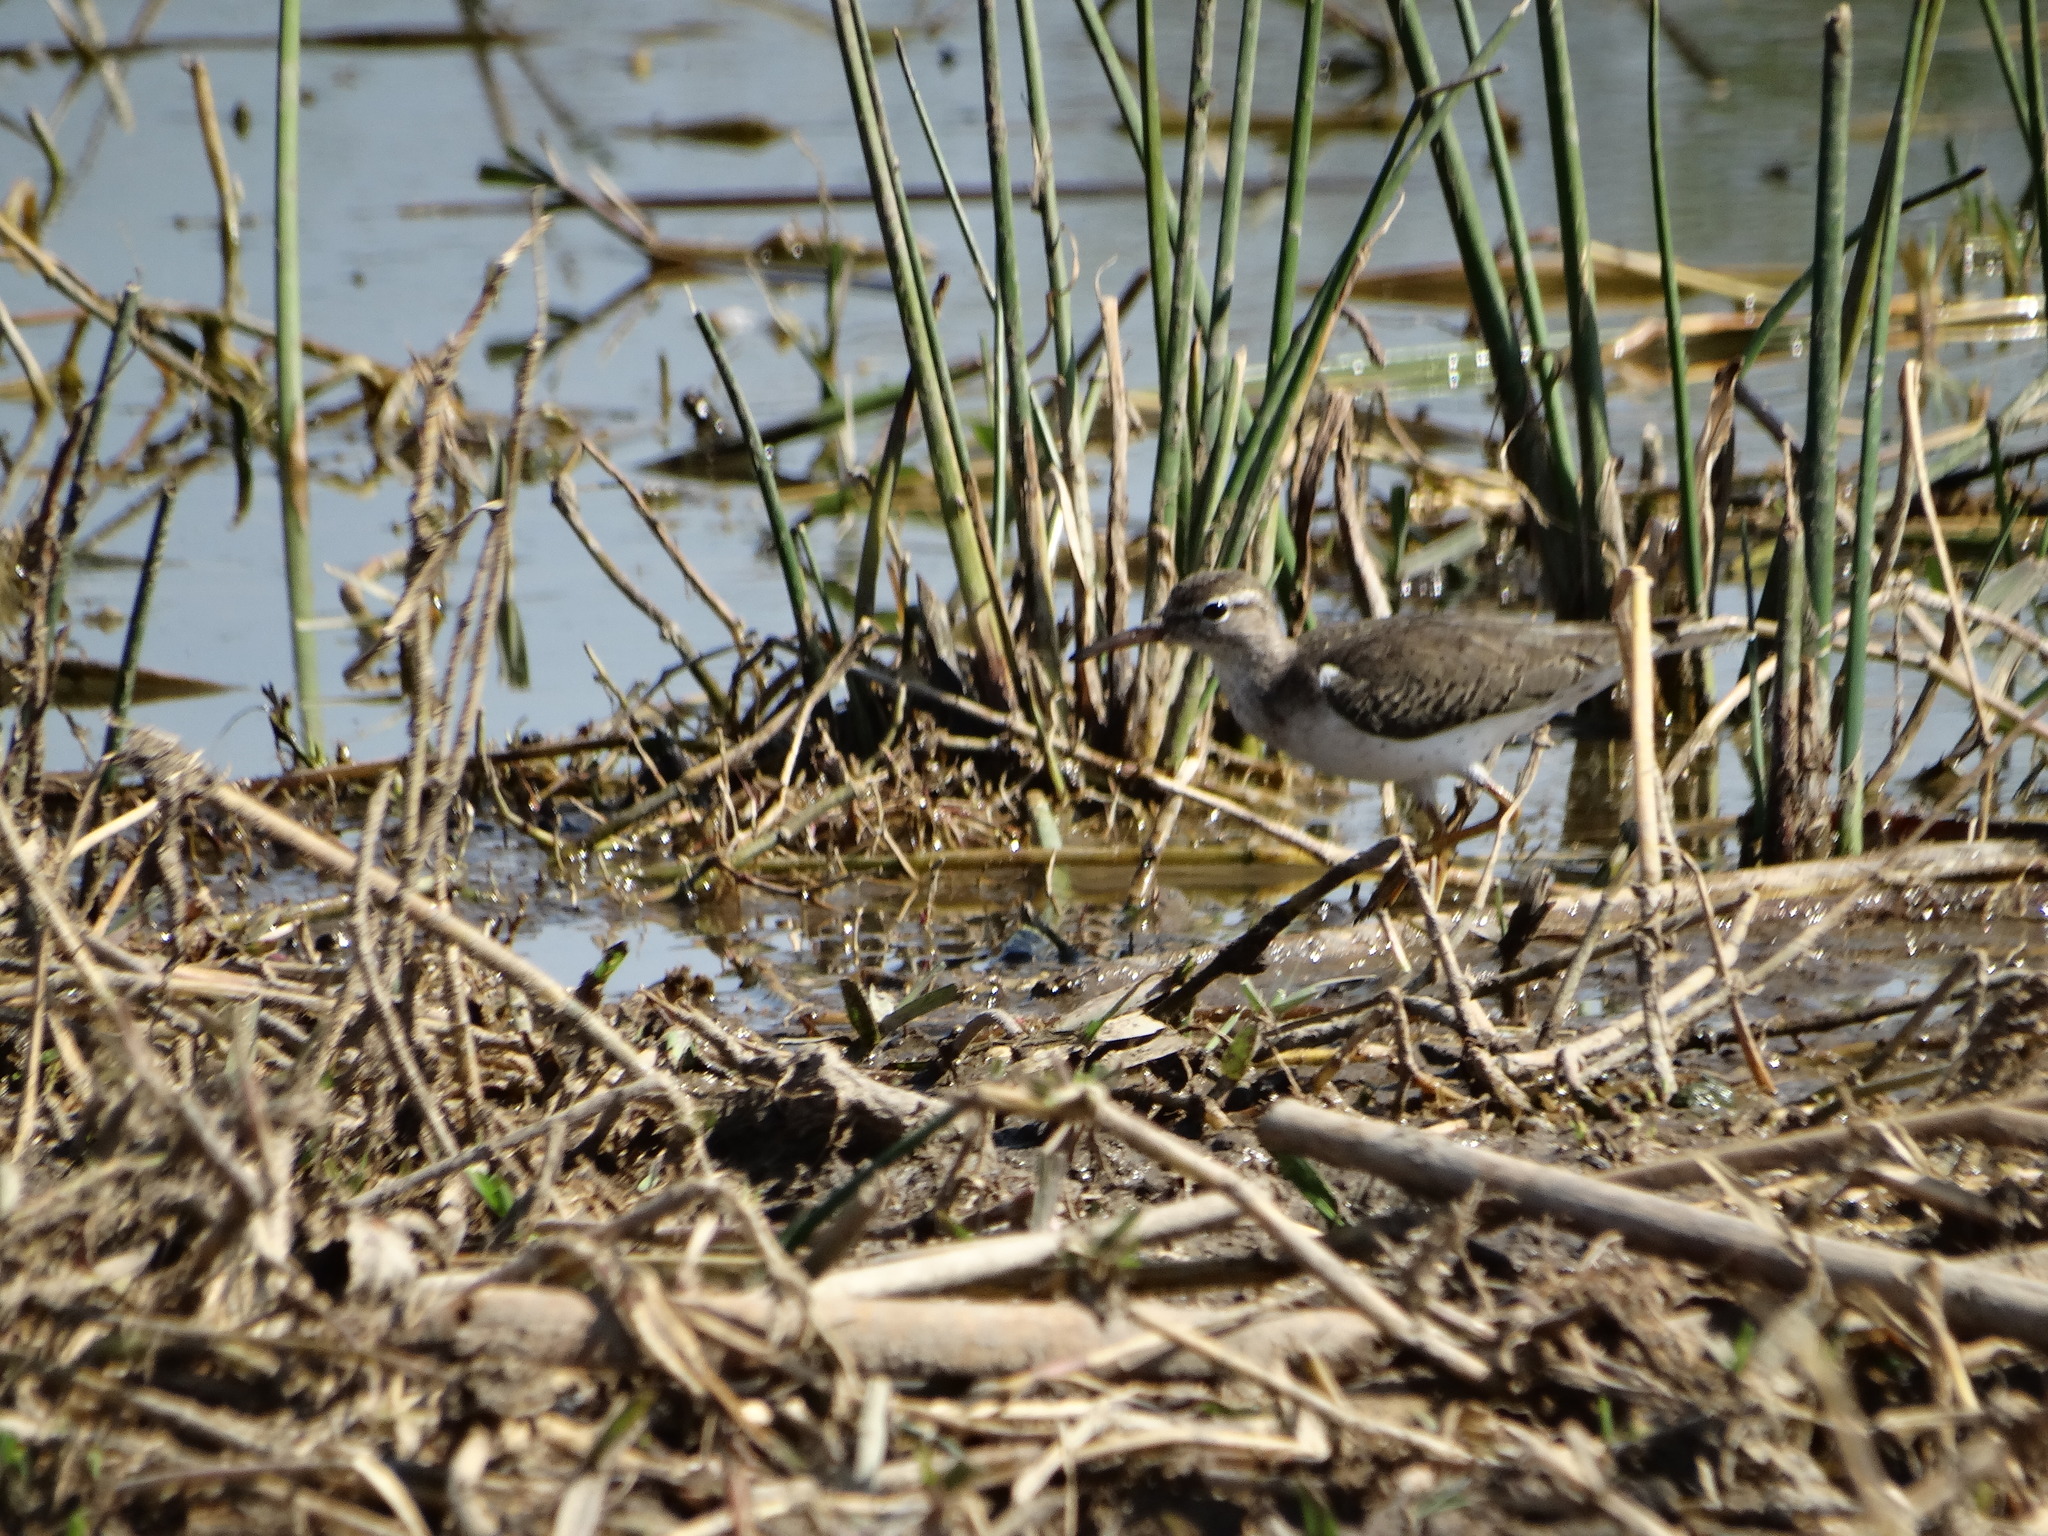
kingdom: Animalia
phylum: Chordata
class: Aves
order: Charadriiformes
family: Scolopacidae
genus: Actitis
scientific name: Actitis macularius
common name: Spotted sandpiper
